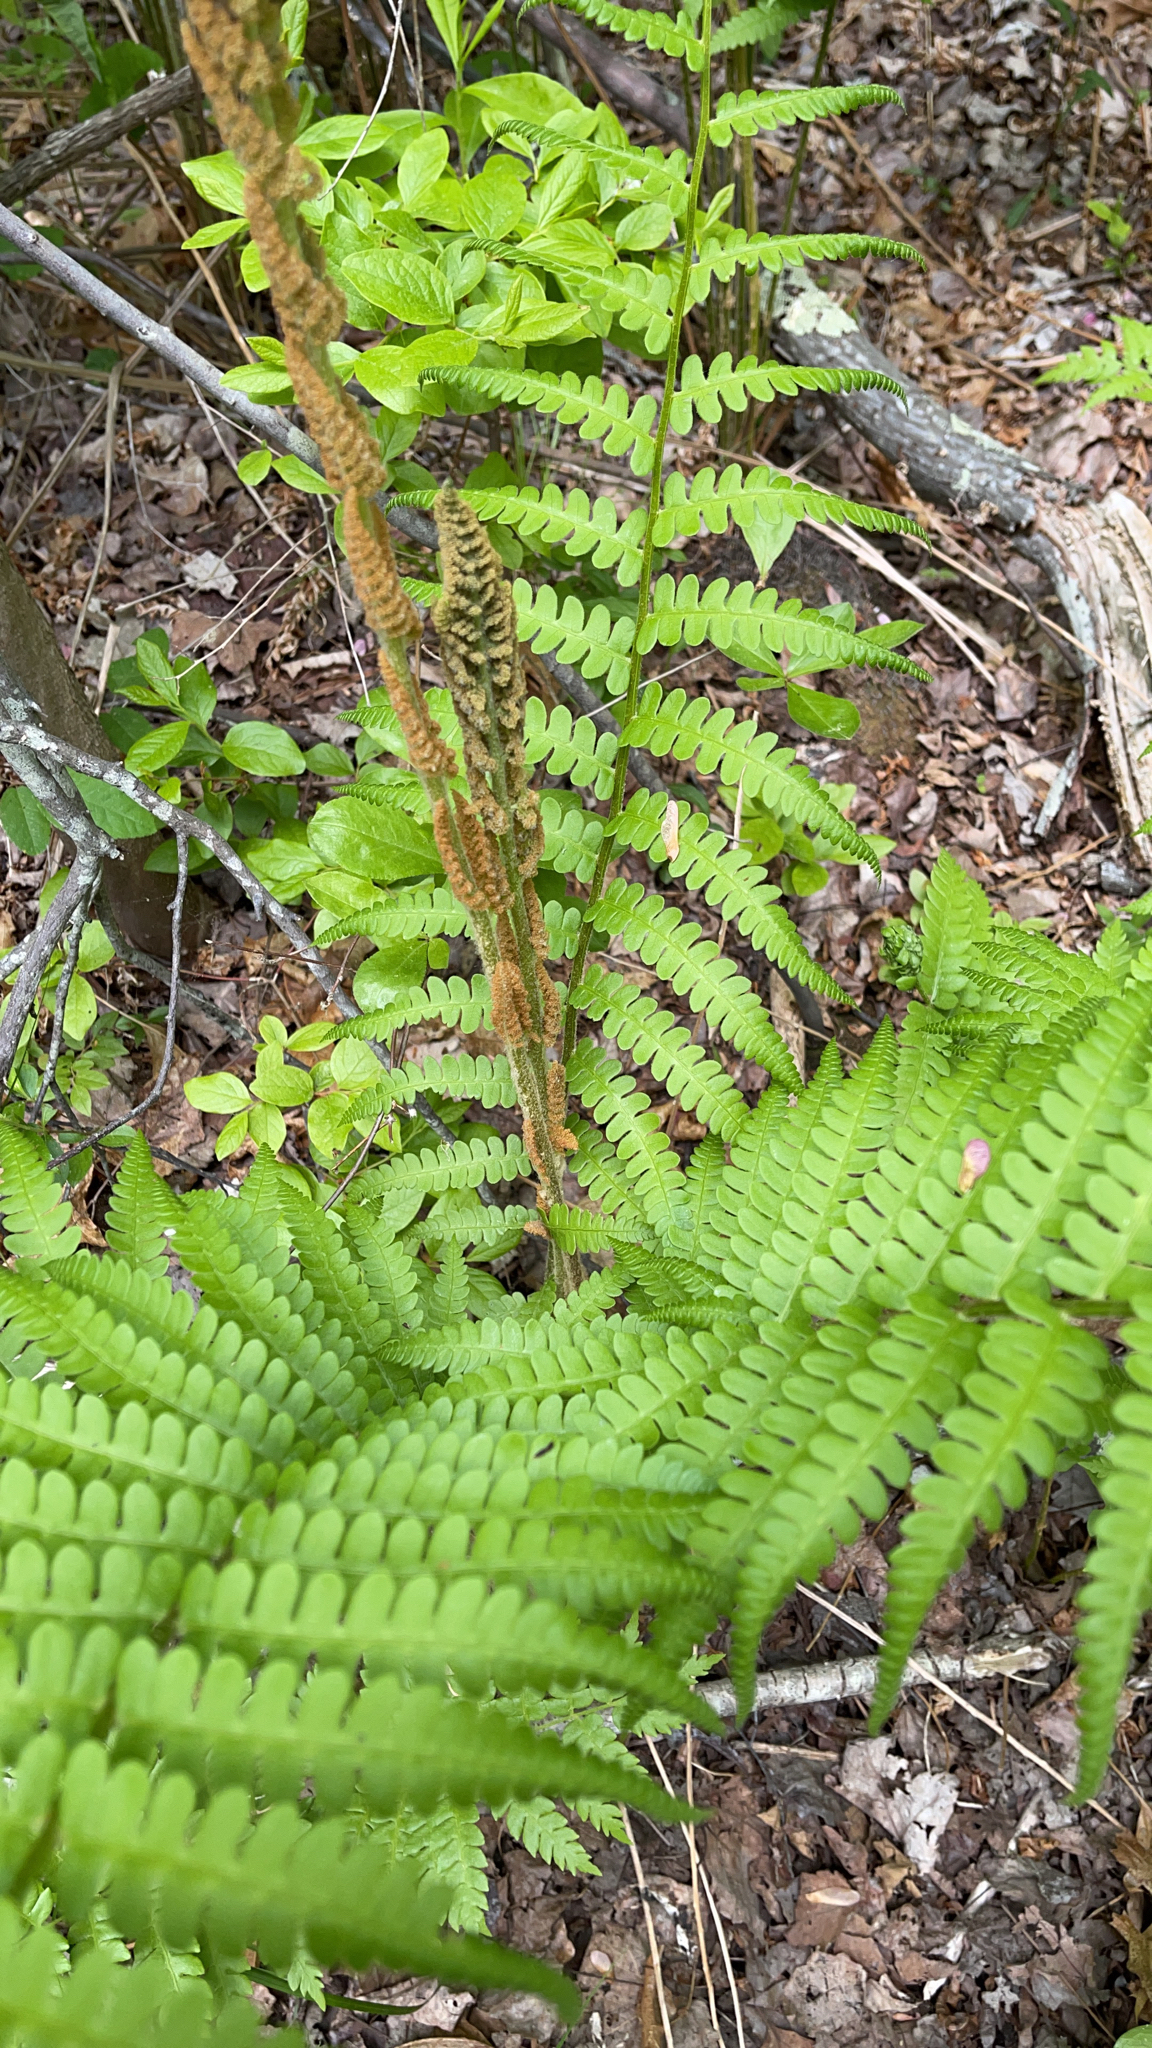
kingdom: Plantae
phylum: Tracheophyta
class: Polypodiopsida
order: Osmundales
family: Osmundaceae
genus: Osmundastrum
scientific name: Osmundastrum cinnamomeum
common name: Cinnamon fern
